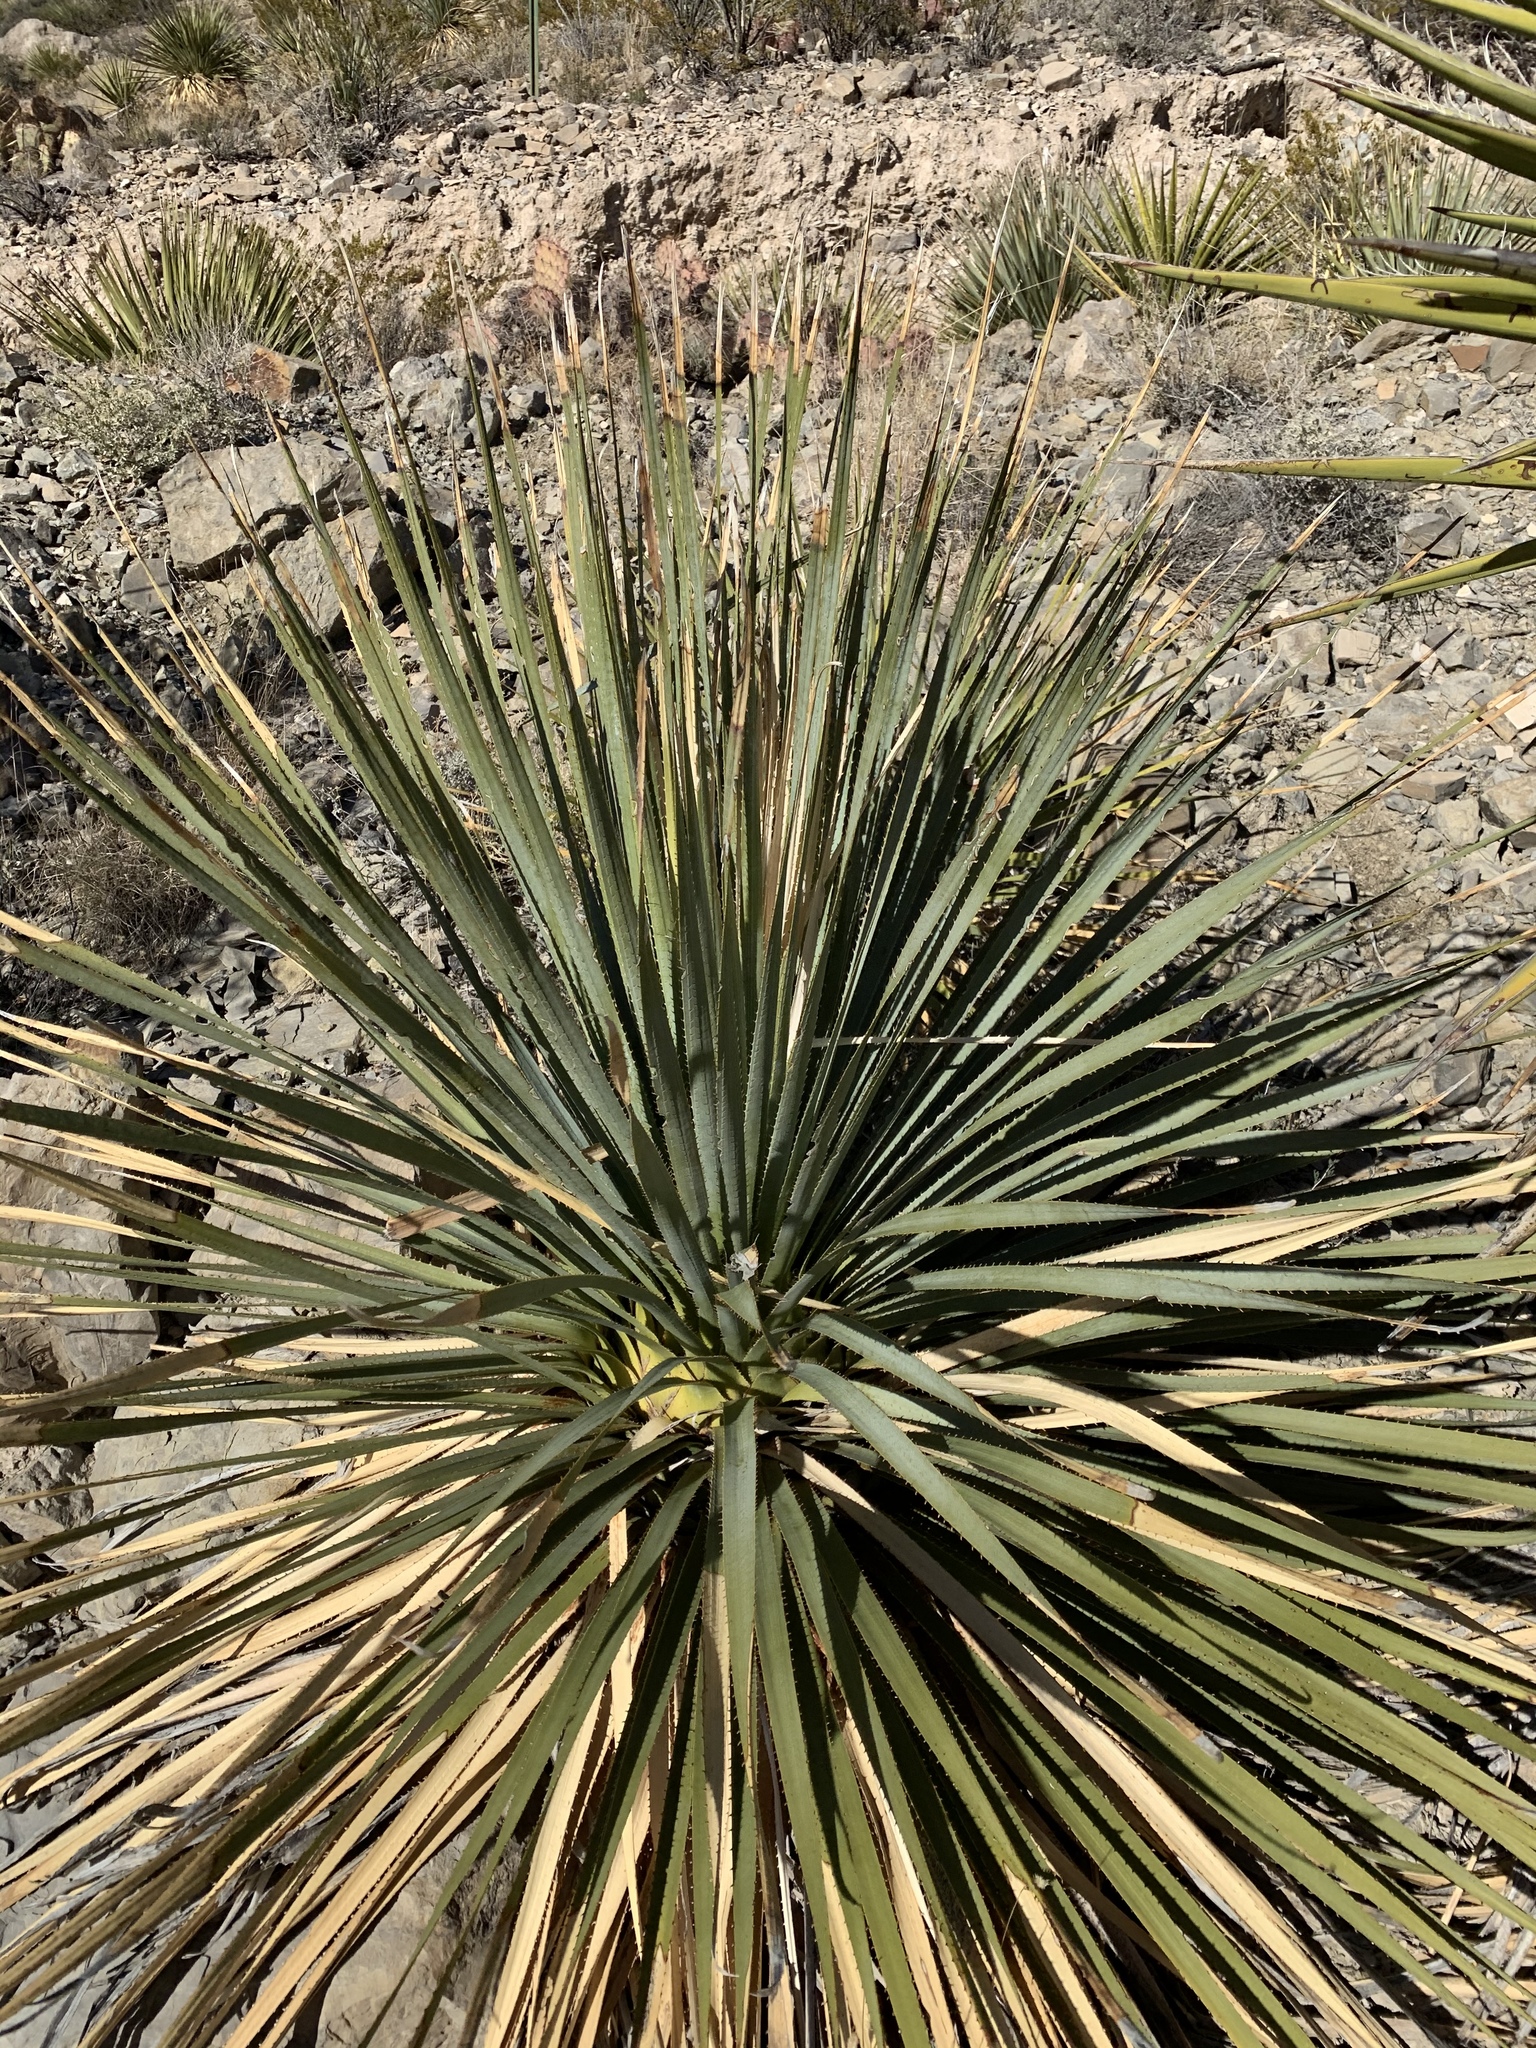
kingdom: Plantae
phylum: Tracheophyta
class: Liliopsida
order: Asparagales
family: Asparagaceae
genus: Dasylirion
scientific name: Dasylirion wheeleri
